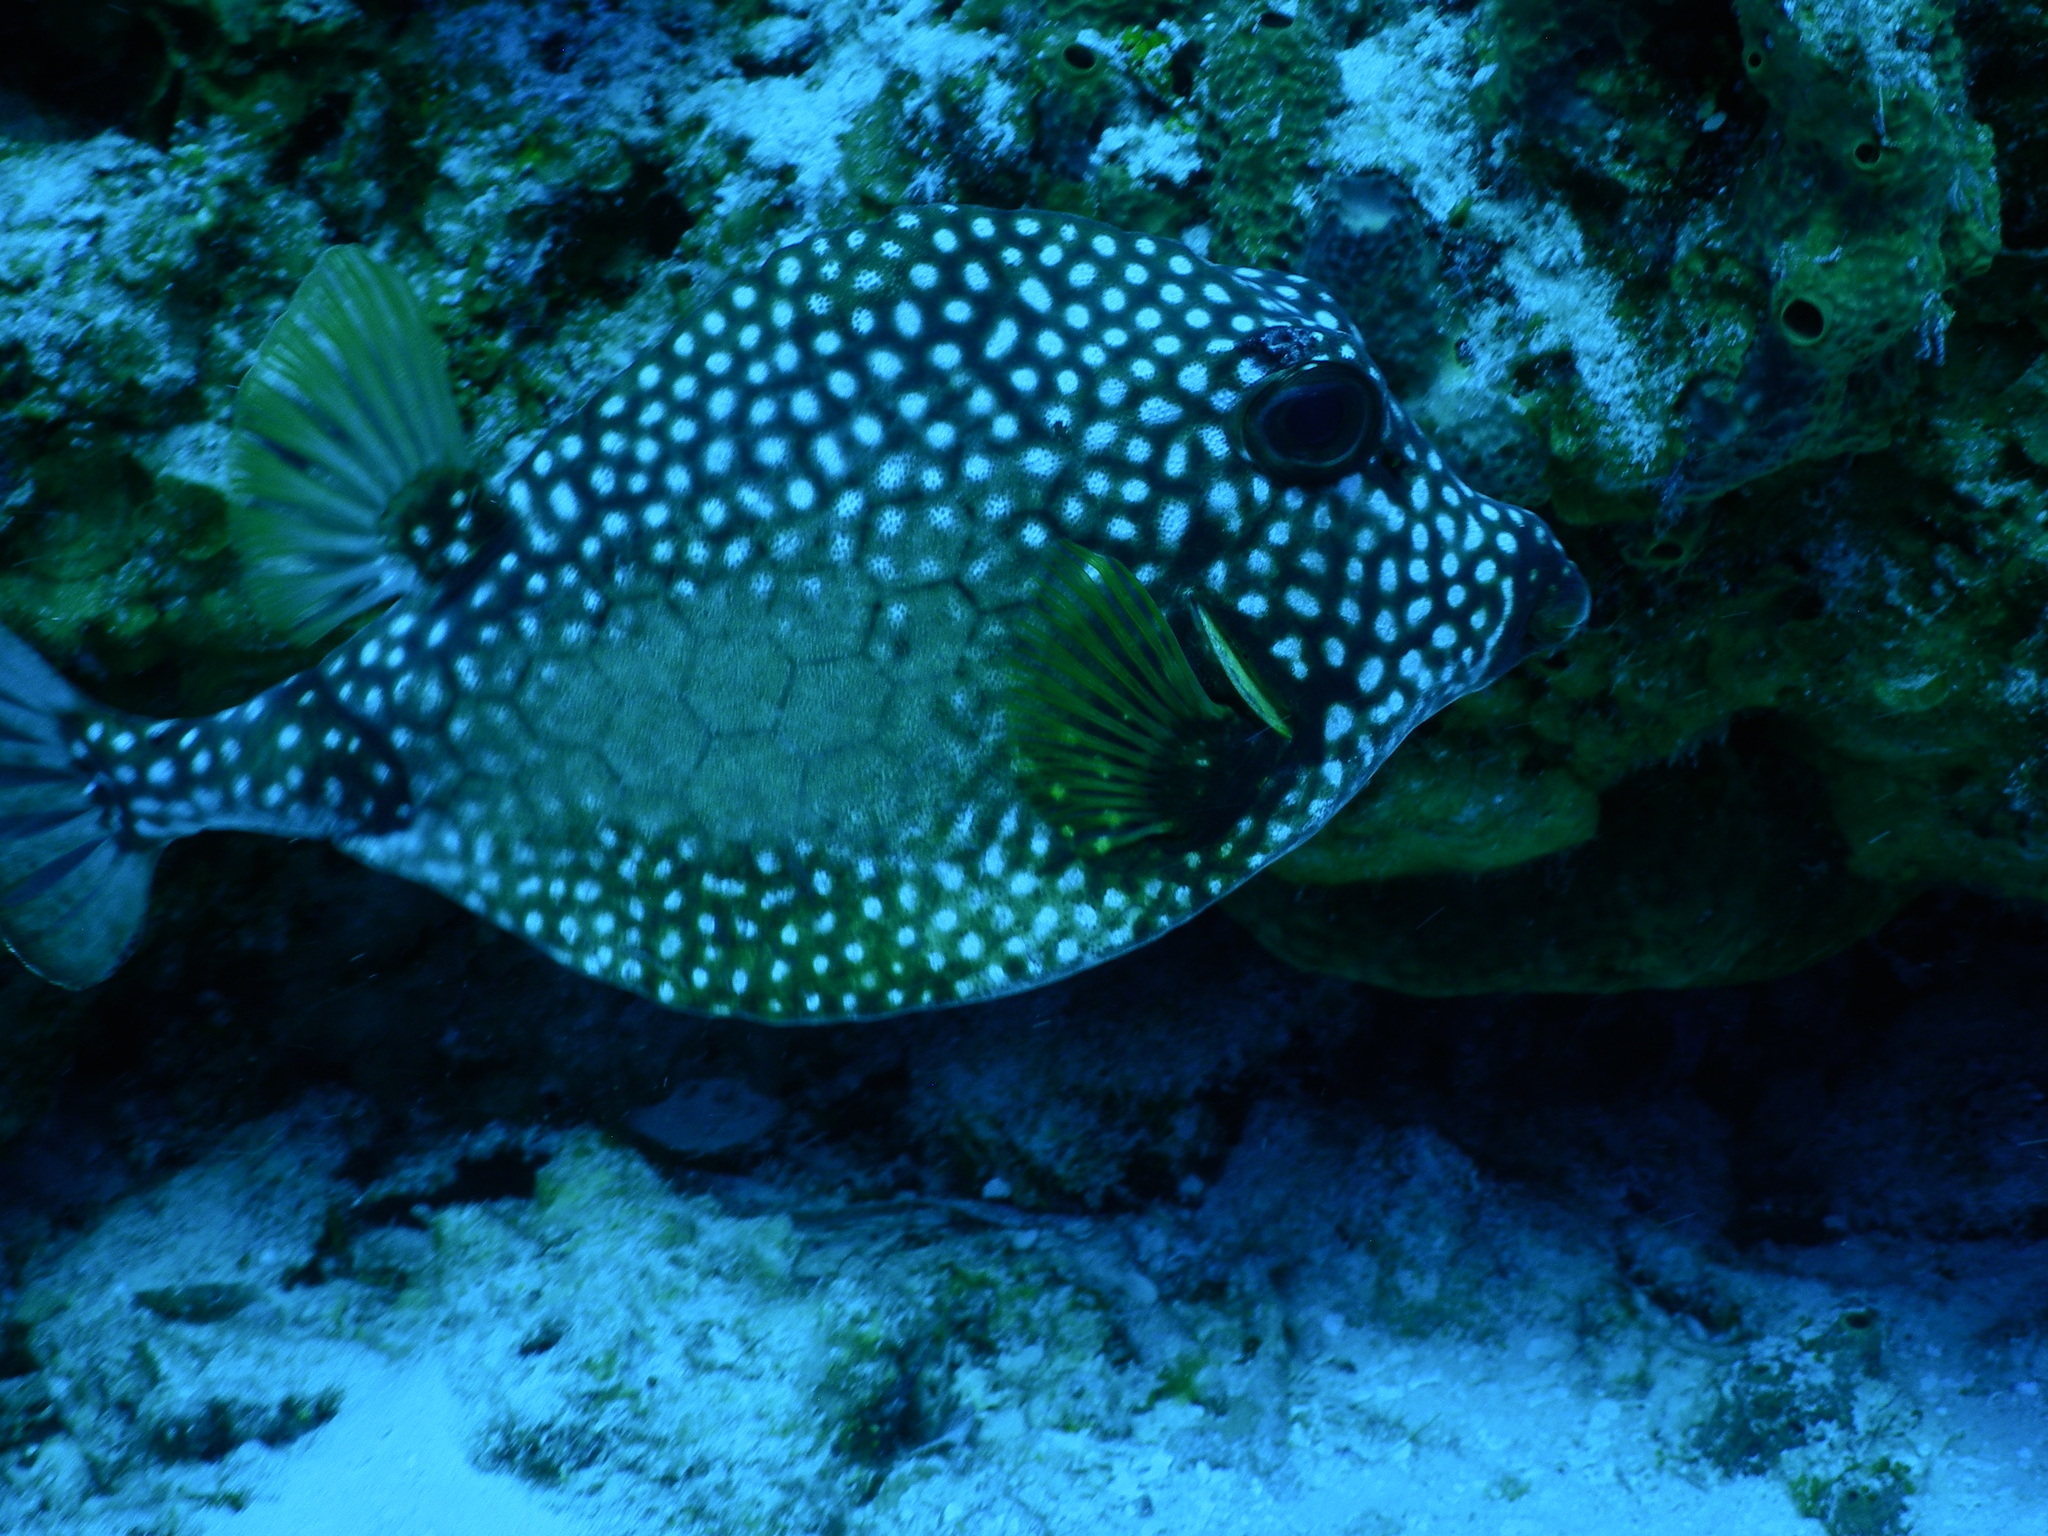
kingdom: Animalia
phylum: Chordata
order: Tetraodontiformes
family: Ostraciidae
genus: Lactophrys
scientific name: Lactophrys triqueter
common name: Smooth trunkfish
